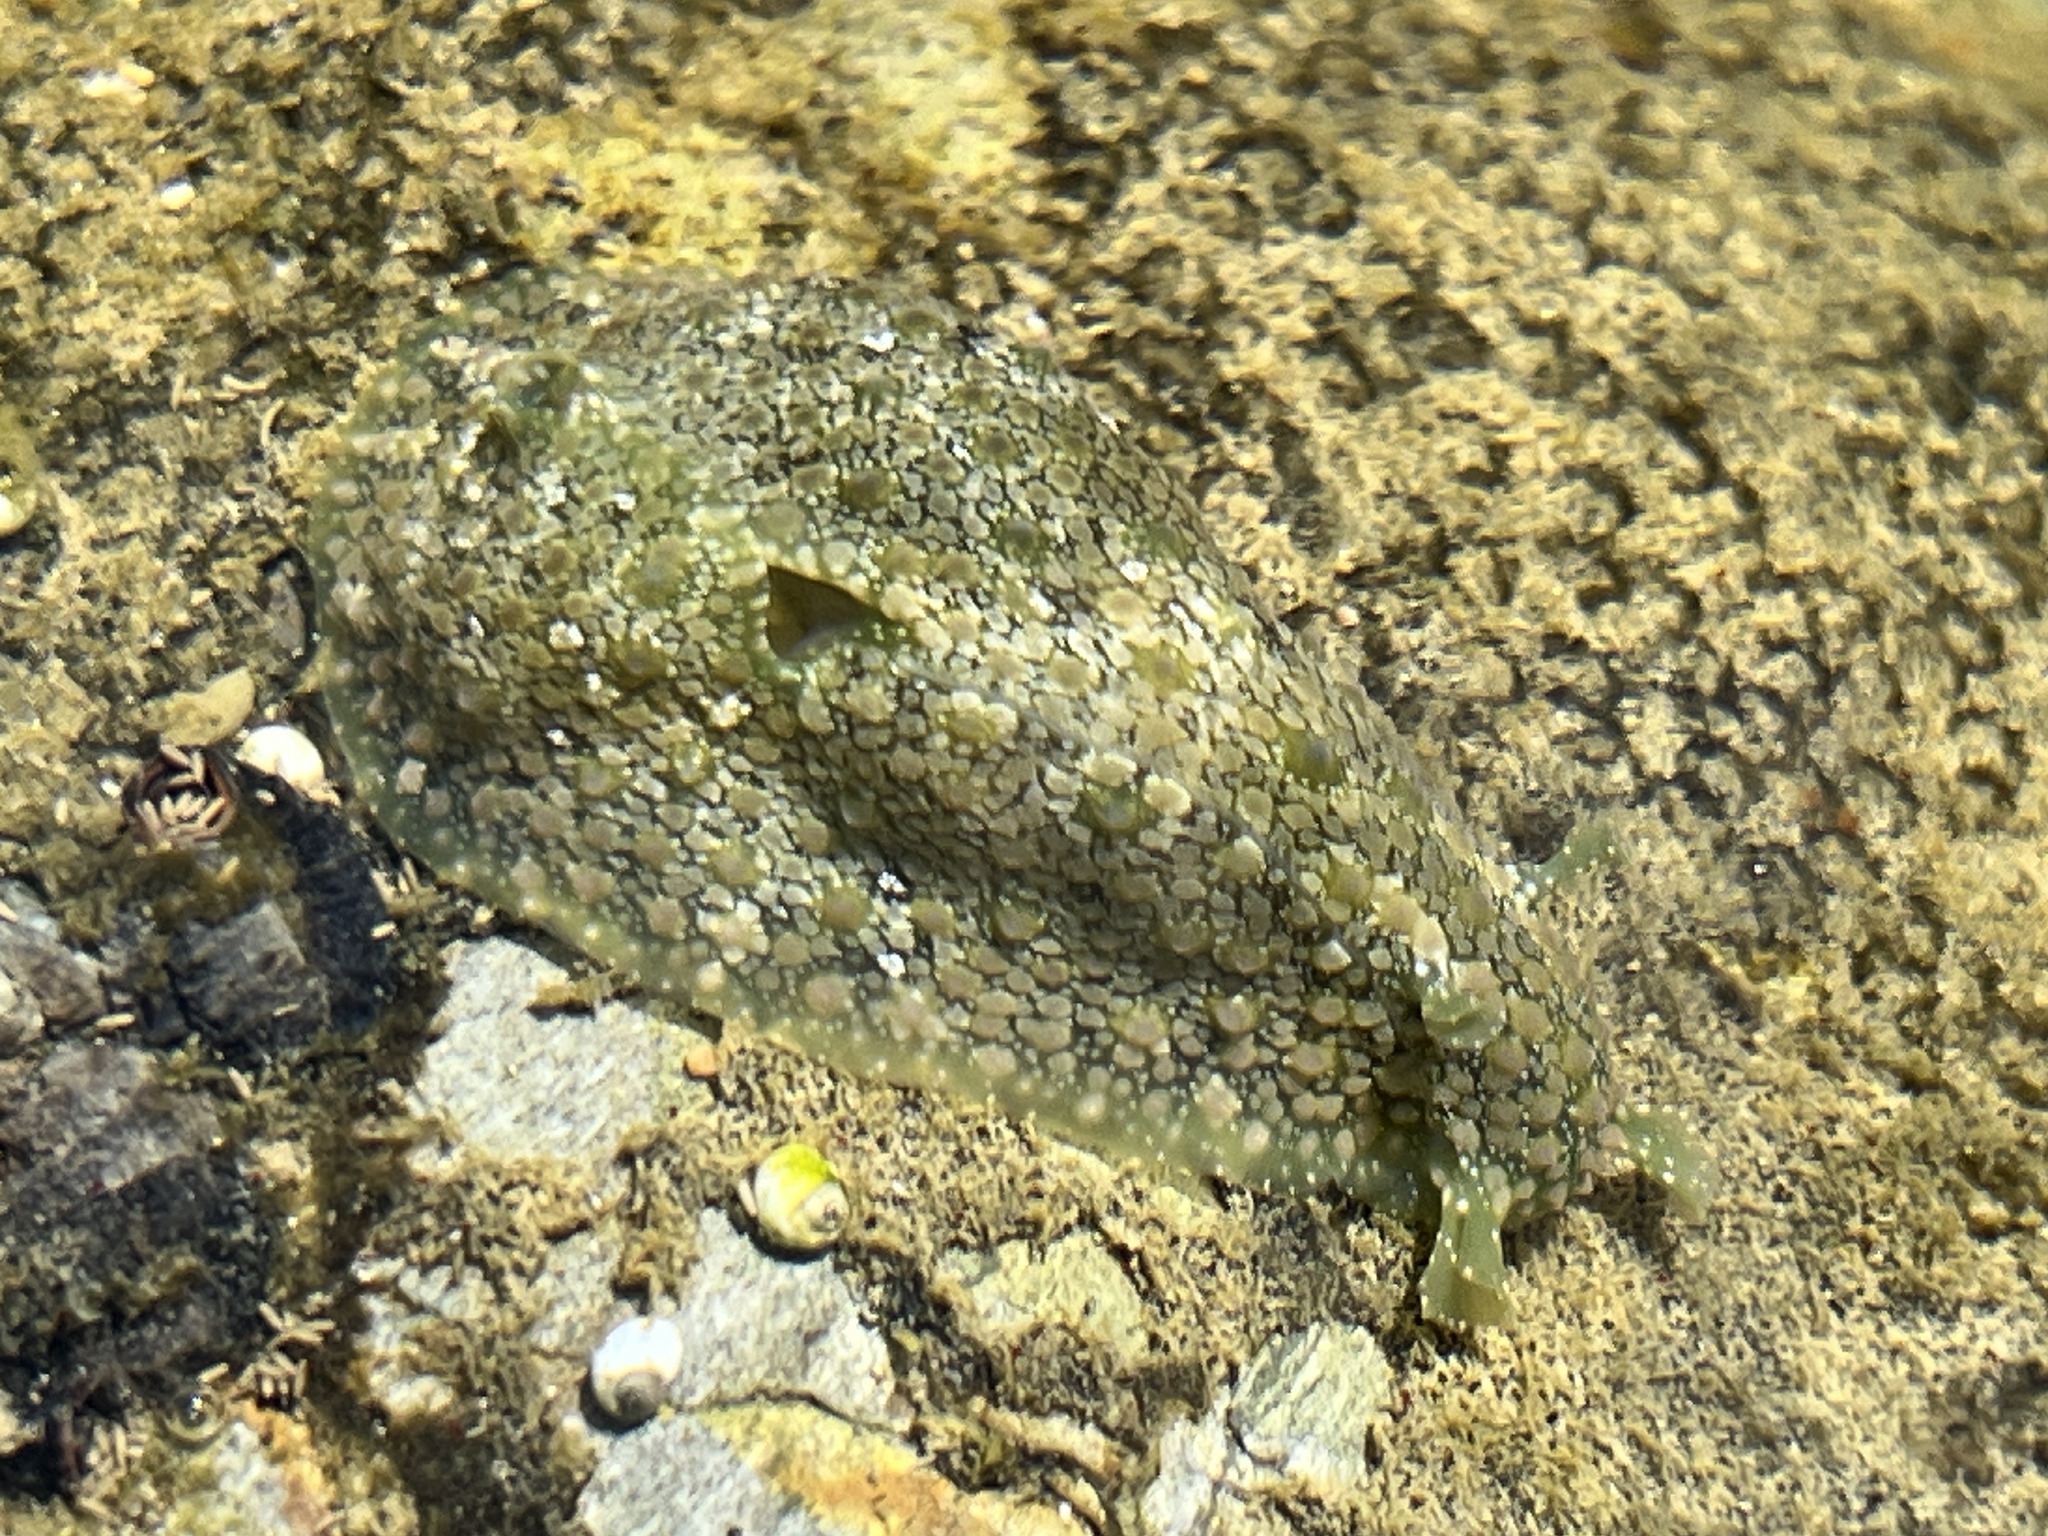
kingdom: Animalia
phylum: Mollusca
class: Gastropoda
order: Aplysiida
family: Aplysiidae
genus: Dolabrifera
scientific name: Dolabrifera nicaraguana
